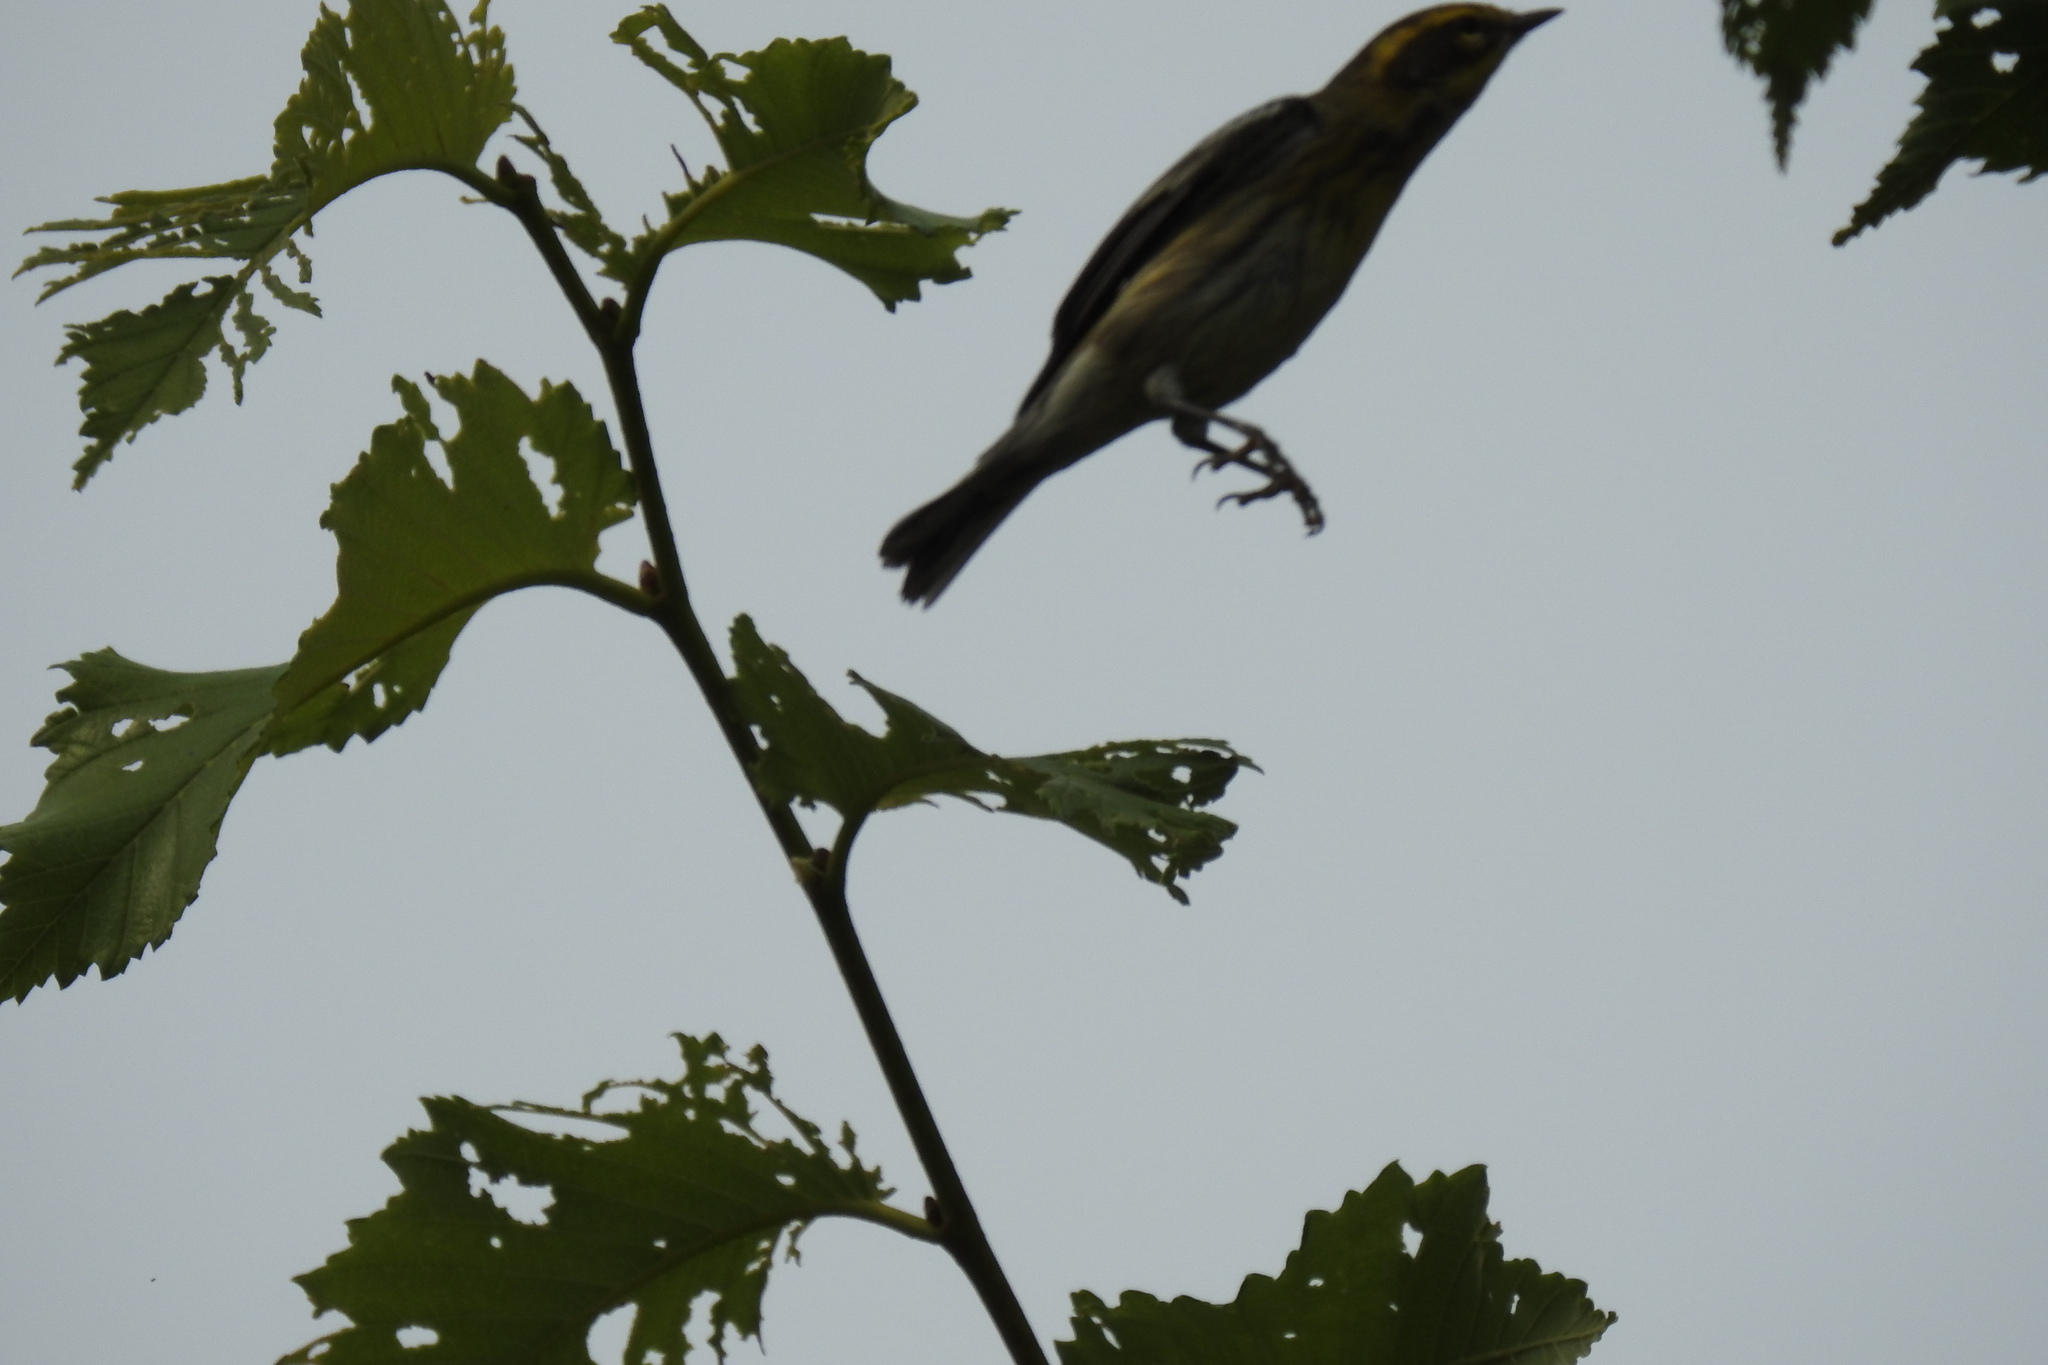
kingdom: Animalia
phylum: Chordata
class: Aves
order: Passeriformes
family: Parulidae
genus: Setophaga
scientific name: Setophaga townsendi
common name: Townsend's warbler
